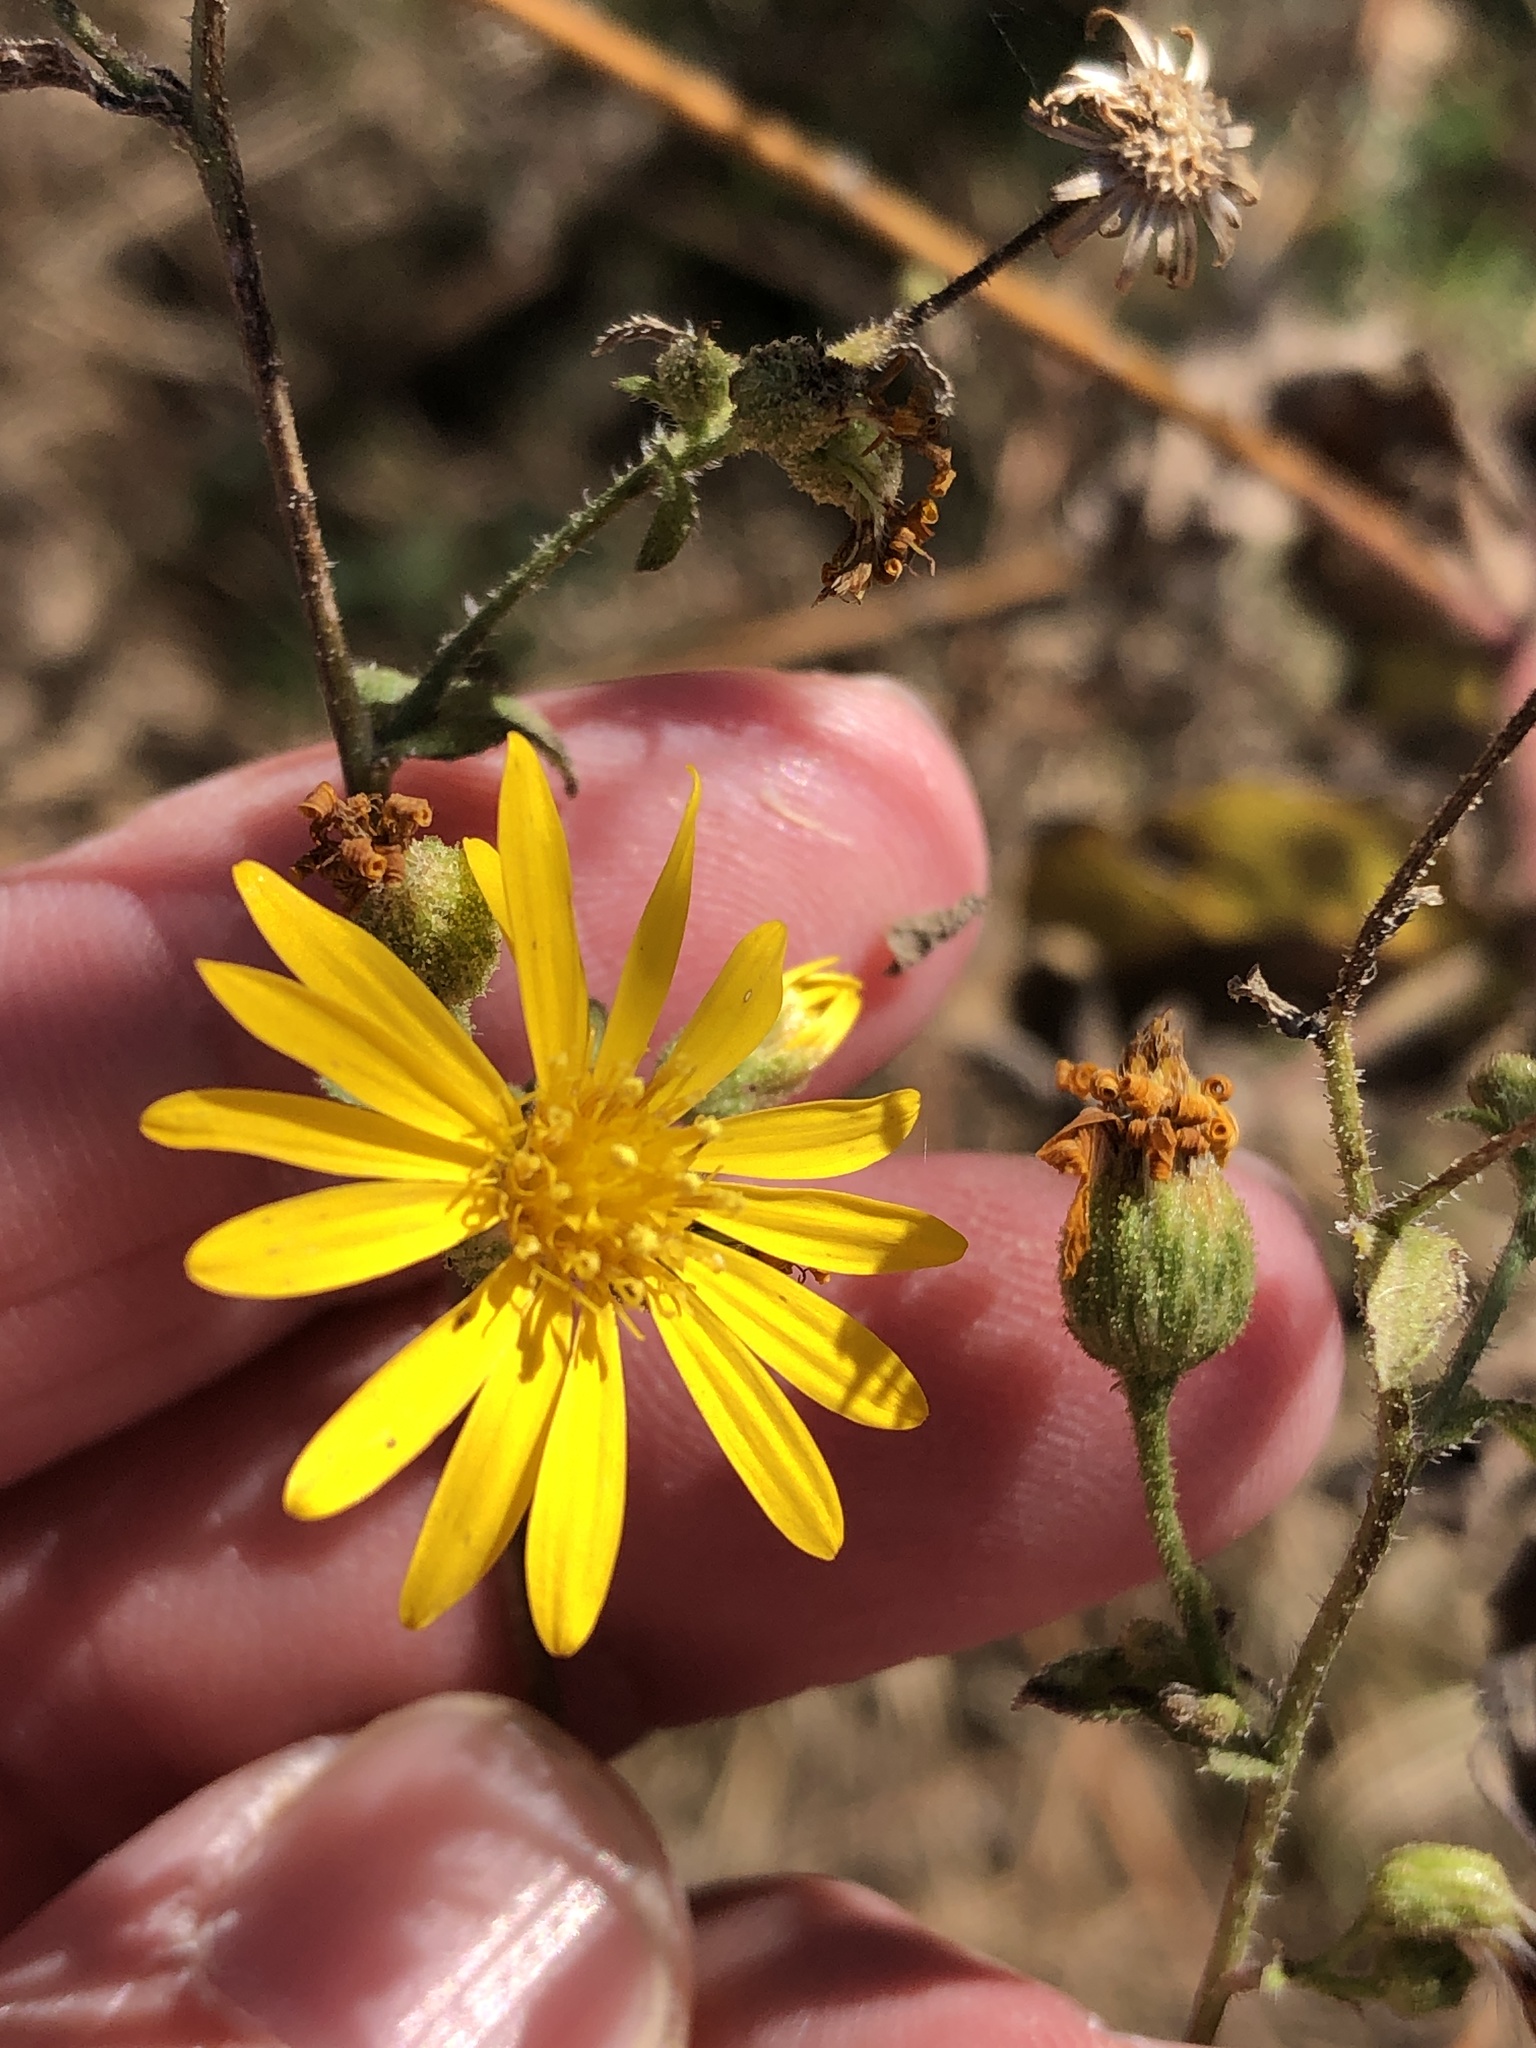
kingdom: Plantae
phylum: Tracheophyta
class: Magnoliopsida
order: Asterales
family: Asteraceae
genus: Heterotheca
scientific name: Heterotheca subaxillaris
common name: Camphorweed
